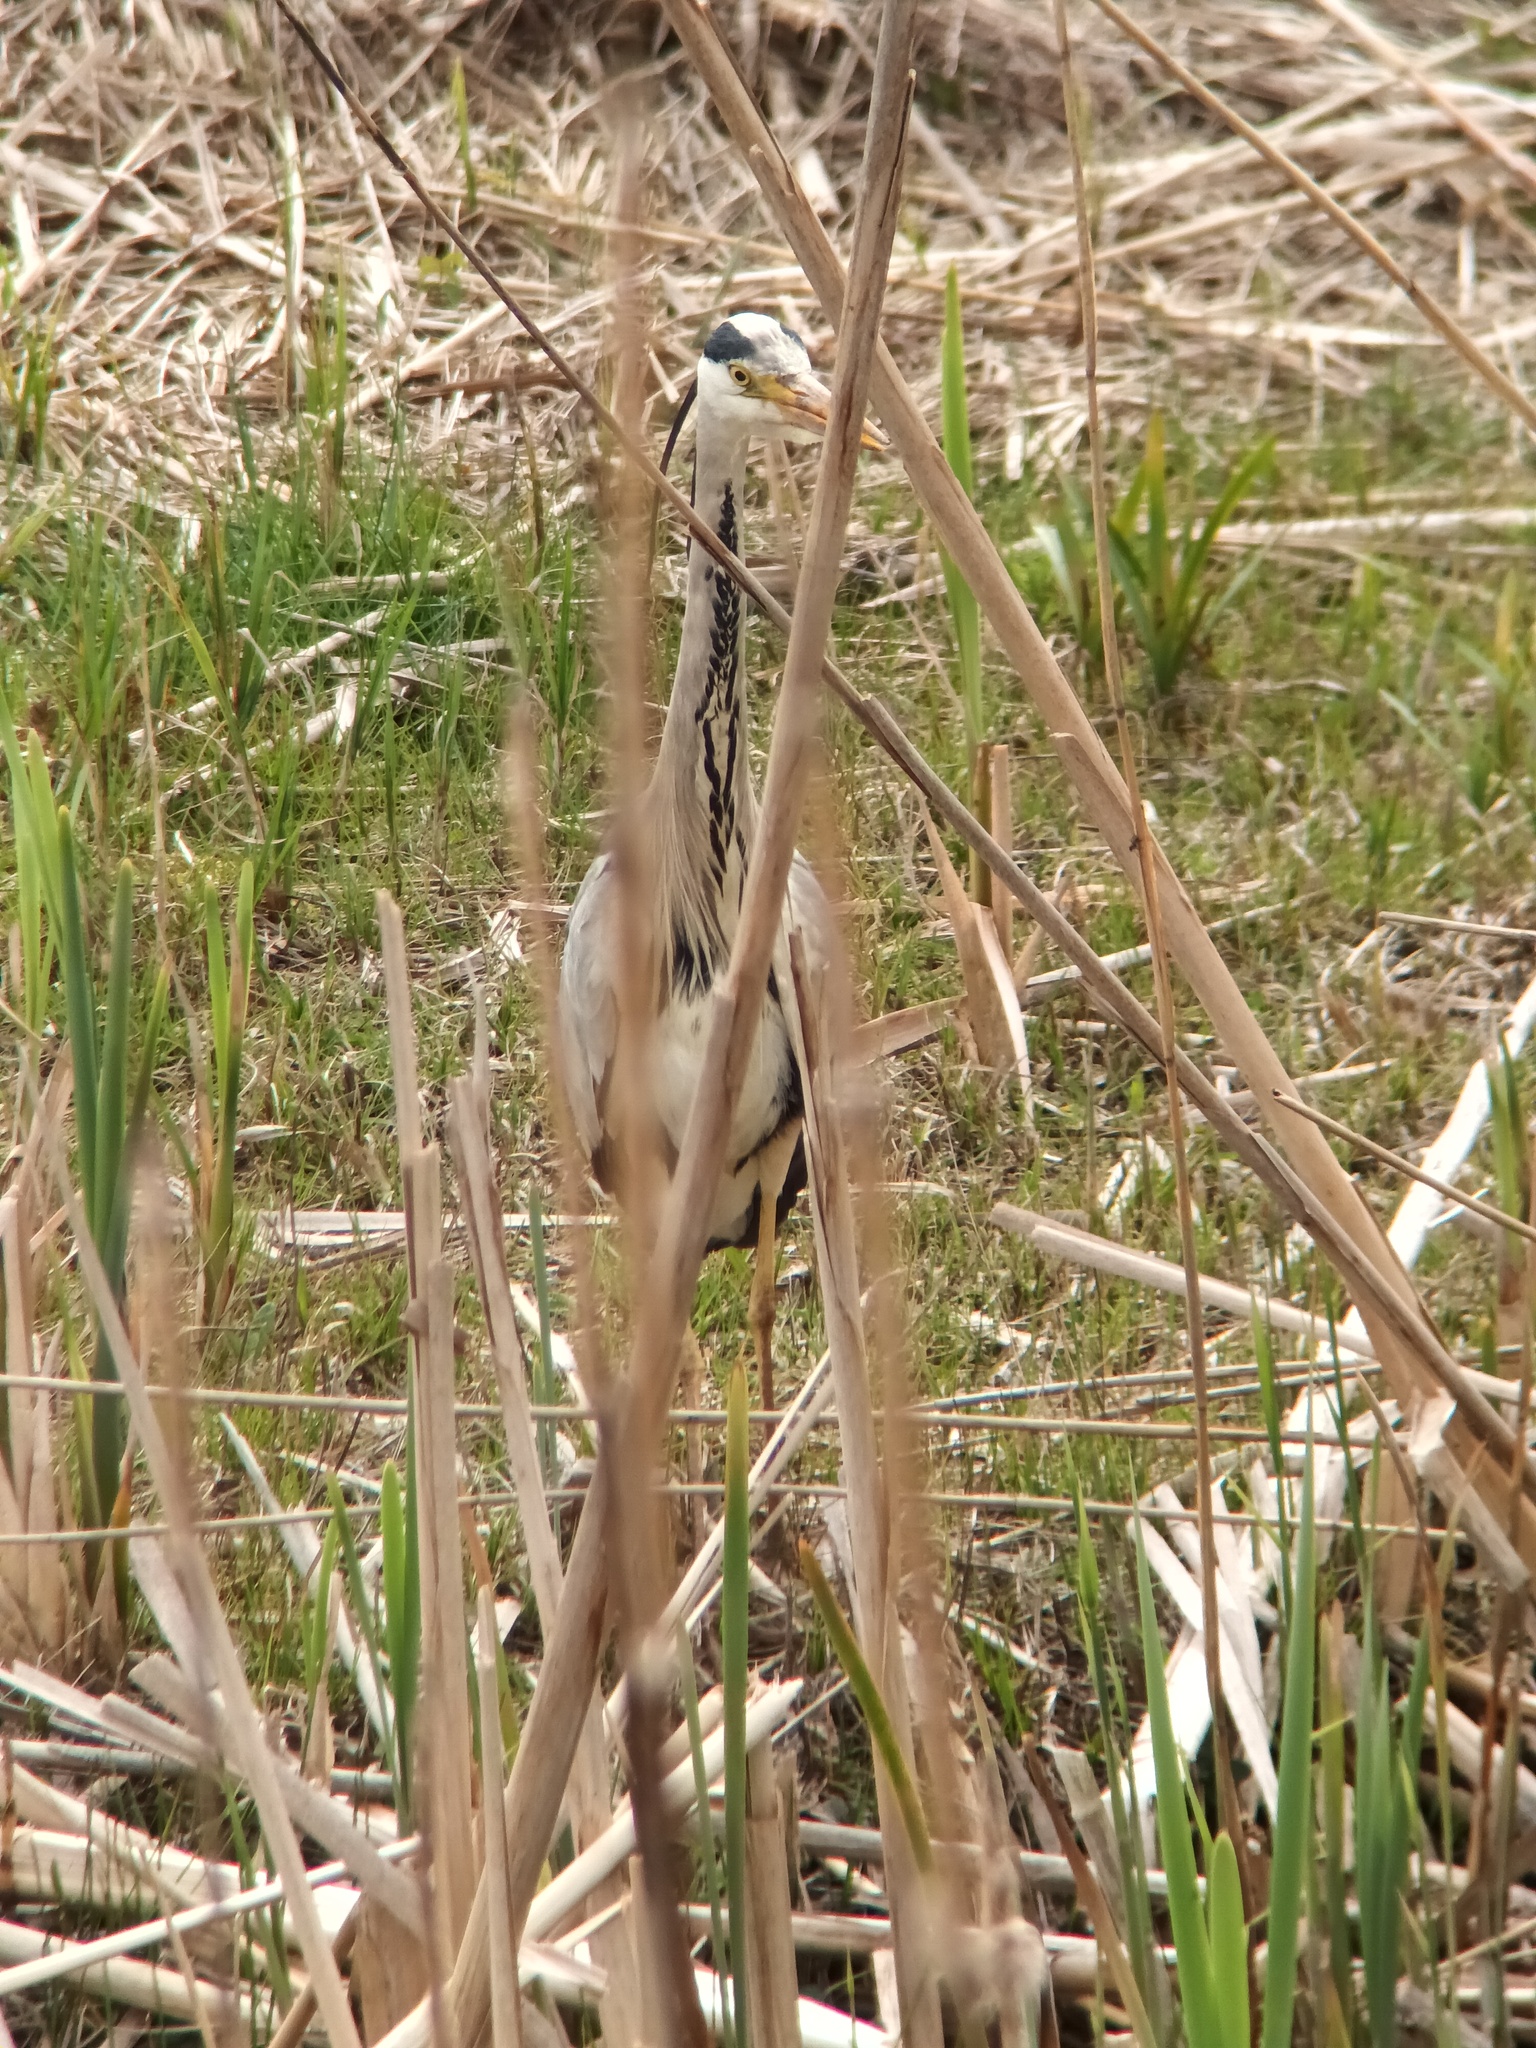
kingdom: Animalia
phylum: Chordata
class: Aves
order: Pelecaniformes
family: Ardeidae
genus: Ardea
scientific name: Ardea cinerea
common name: Grey heron
